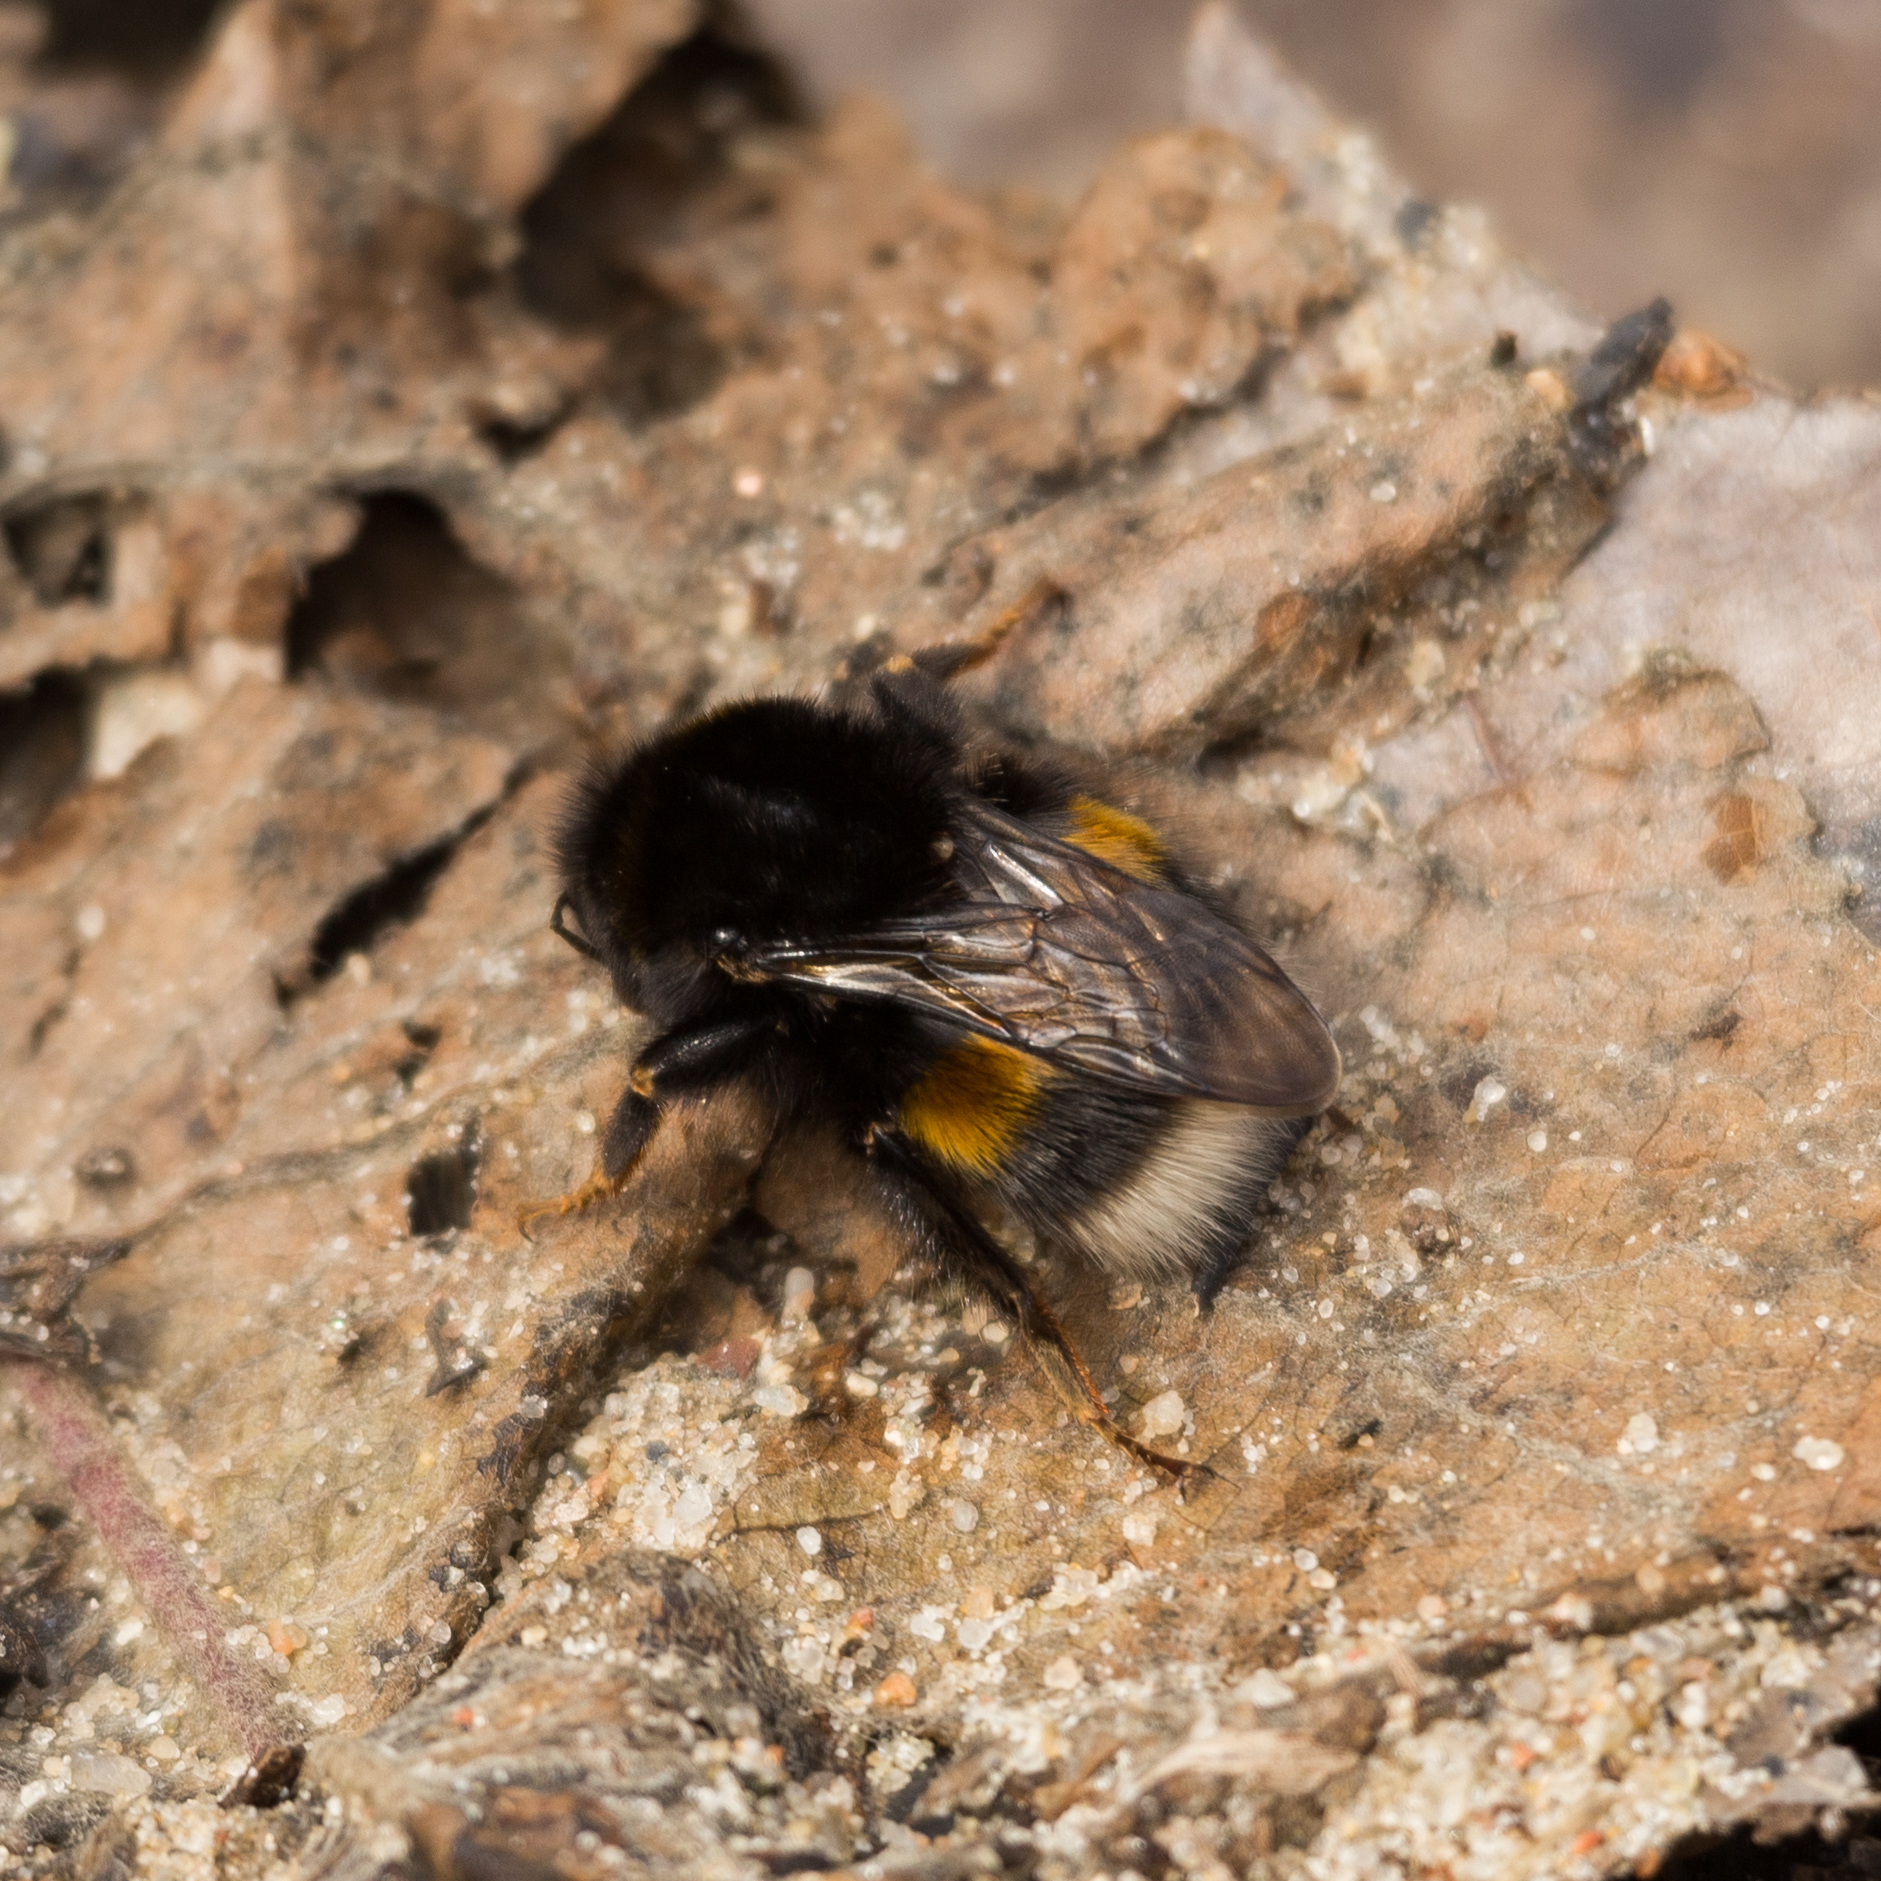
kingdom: Animalia
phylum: Arthropoda
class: Insecta
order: Hymenoptera
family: Apidae
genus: Bombus
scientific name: Bombus
